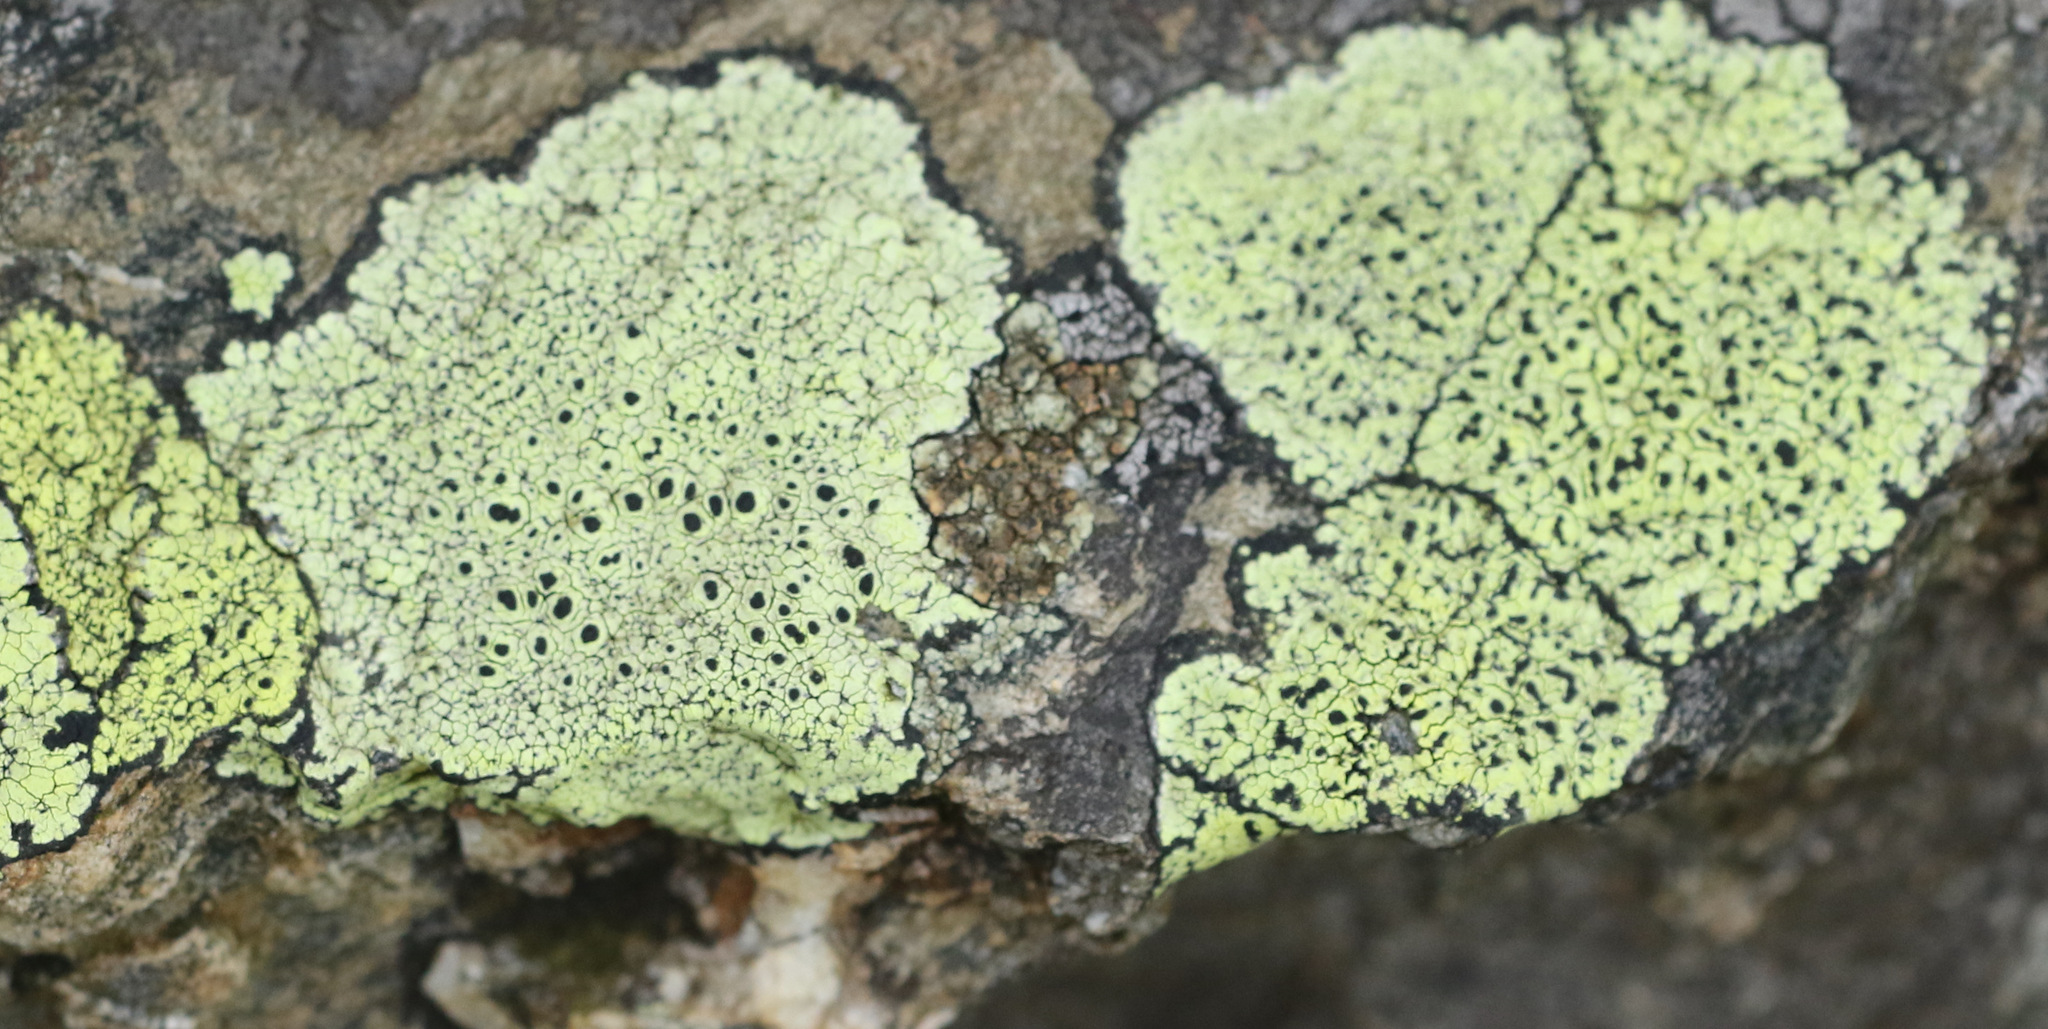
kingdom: Fungi
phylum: Ascomycota
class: Lecanoromycetes
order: Rhizocarpales
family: Rhizocarpaceae
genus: Rhizocarpon
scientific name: Rhizocarpon lecanorinum
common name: Crescent map lichen
